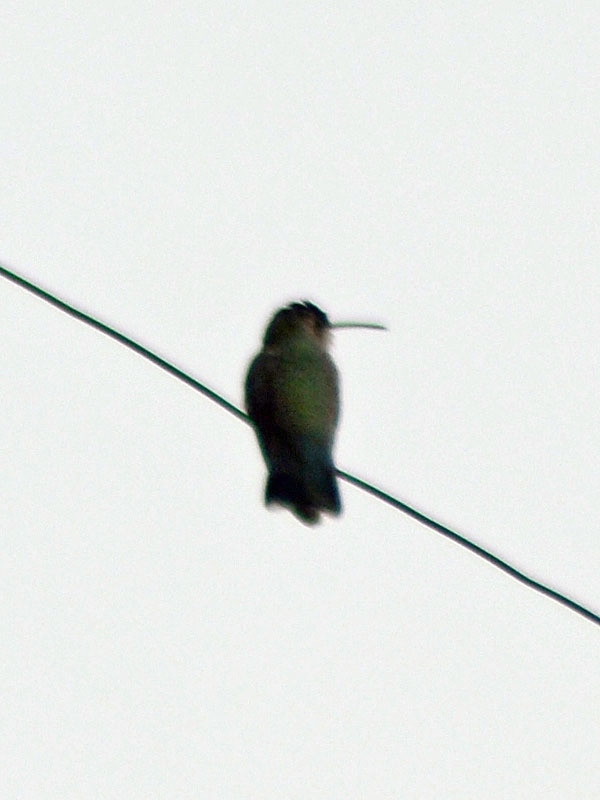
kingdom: Animalia
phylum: Chordata
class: Aves
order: Apodiformes
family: Trochilidae
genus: Cynanthus
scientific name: Cynanthus latirostris
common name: Broad-billed hummingbird
